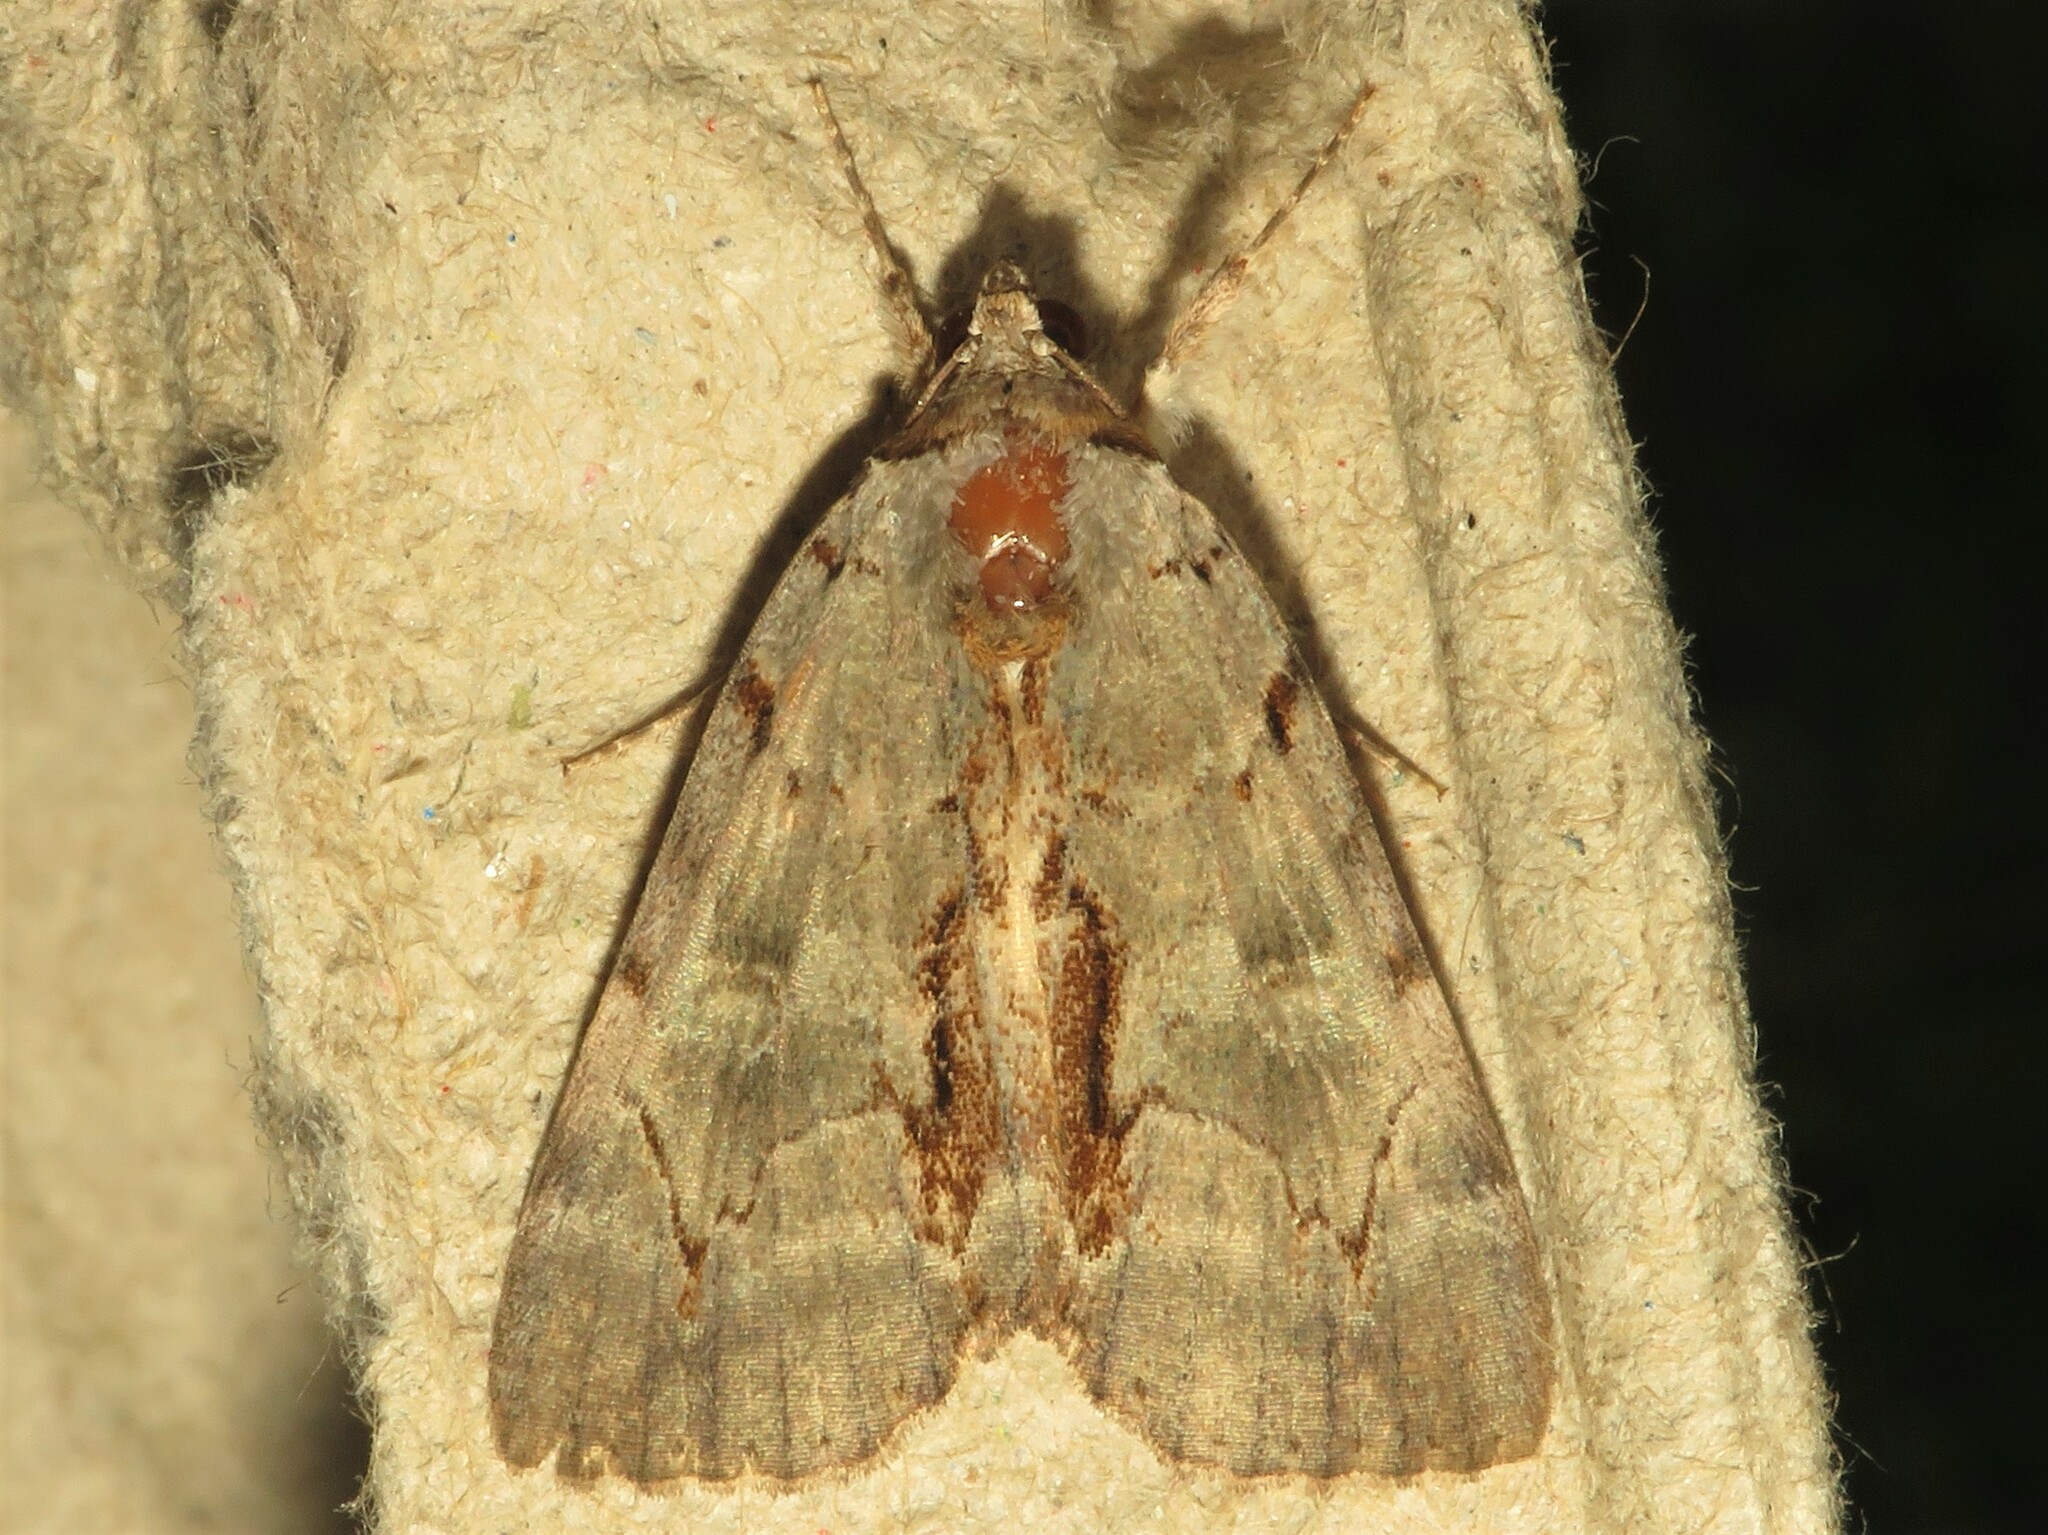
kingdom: Animalia
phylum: Arthropoda
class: Insecta
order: Lepidoptera
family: Erebidae
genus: Catocala
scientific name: Catocala grynea
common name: Woody underwing
